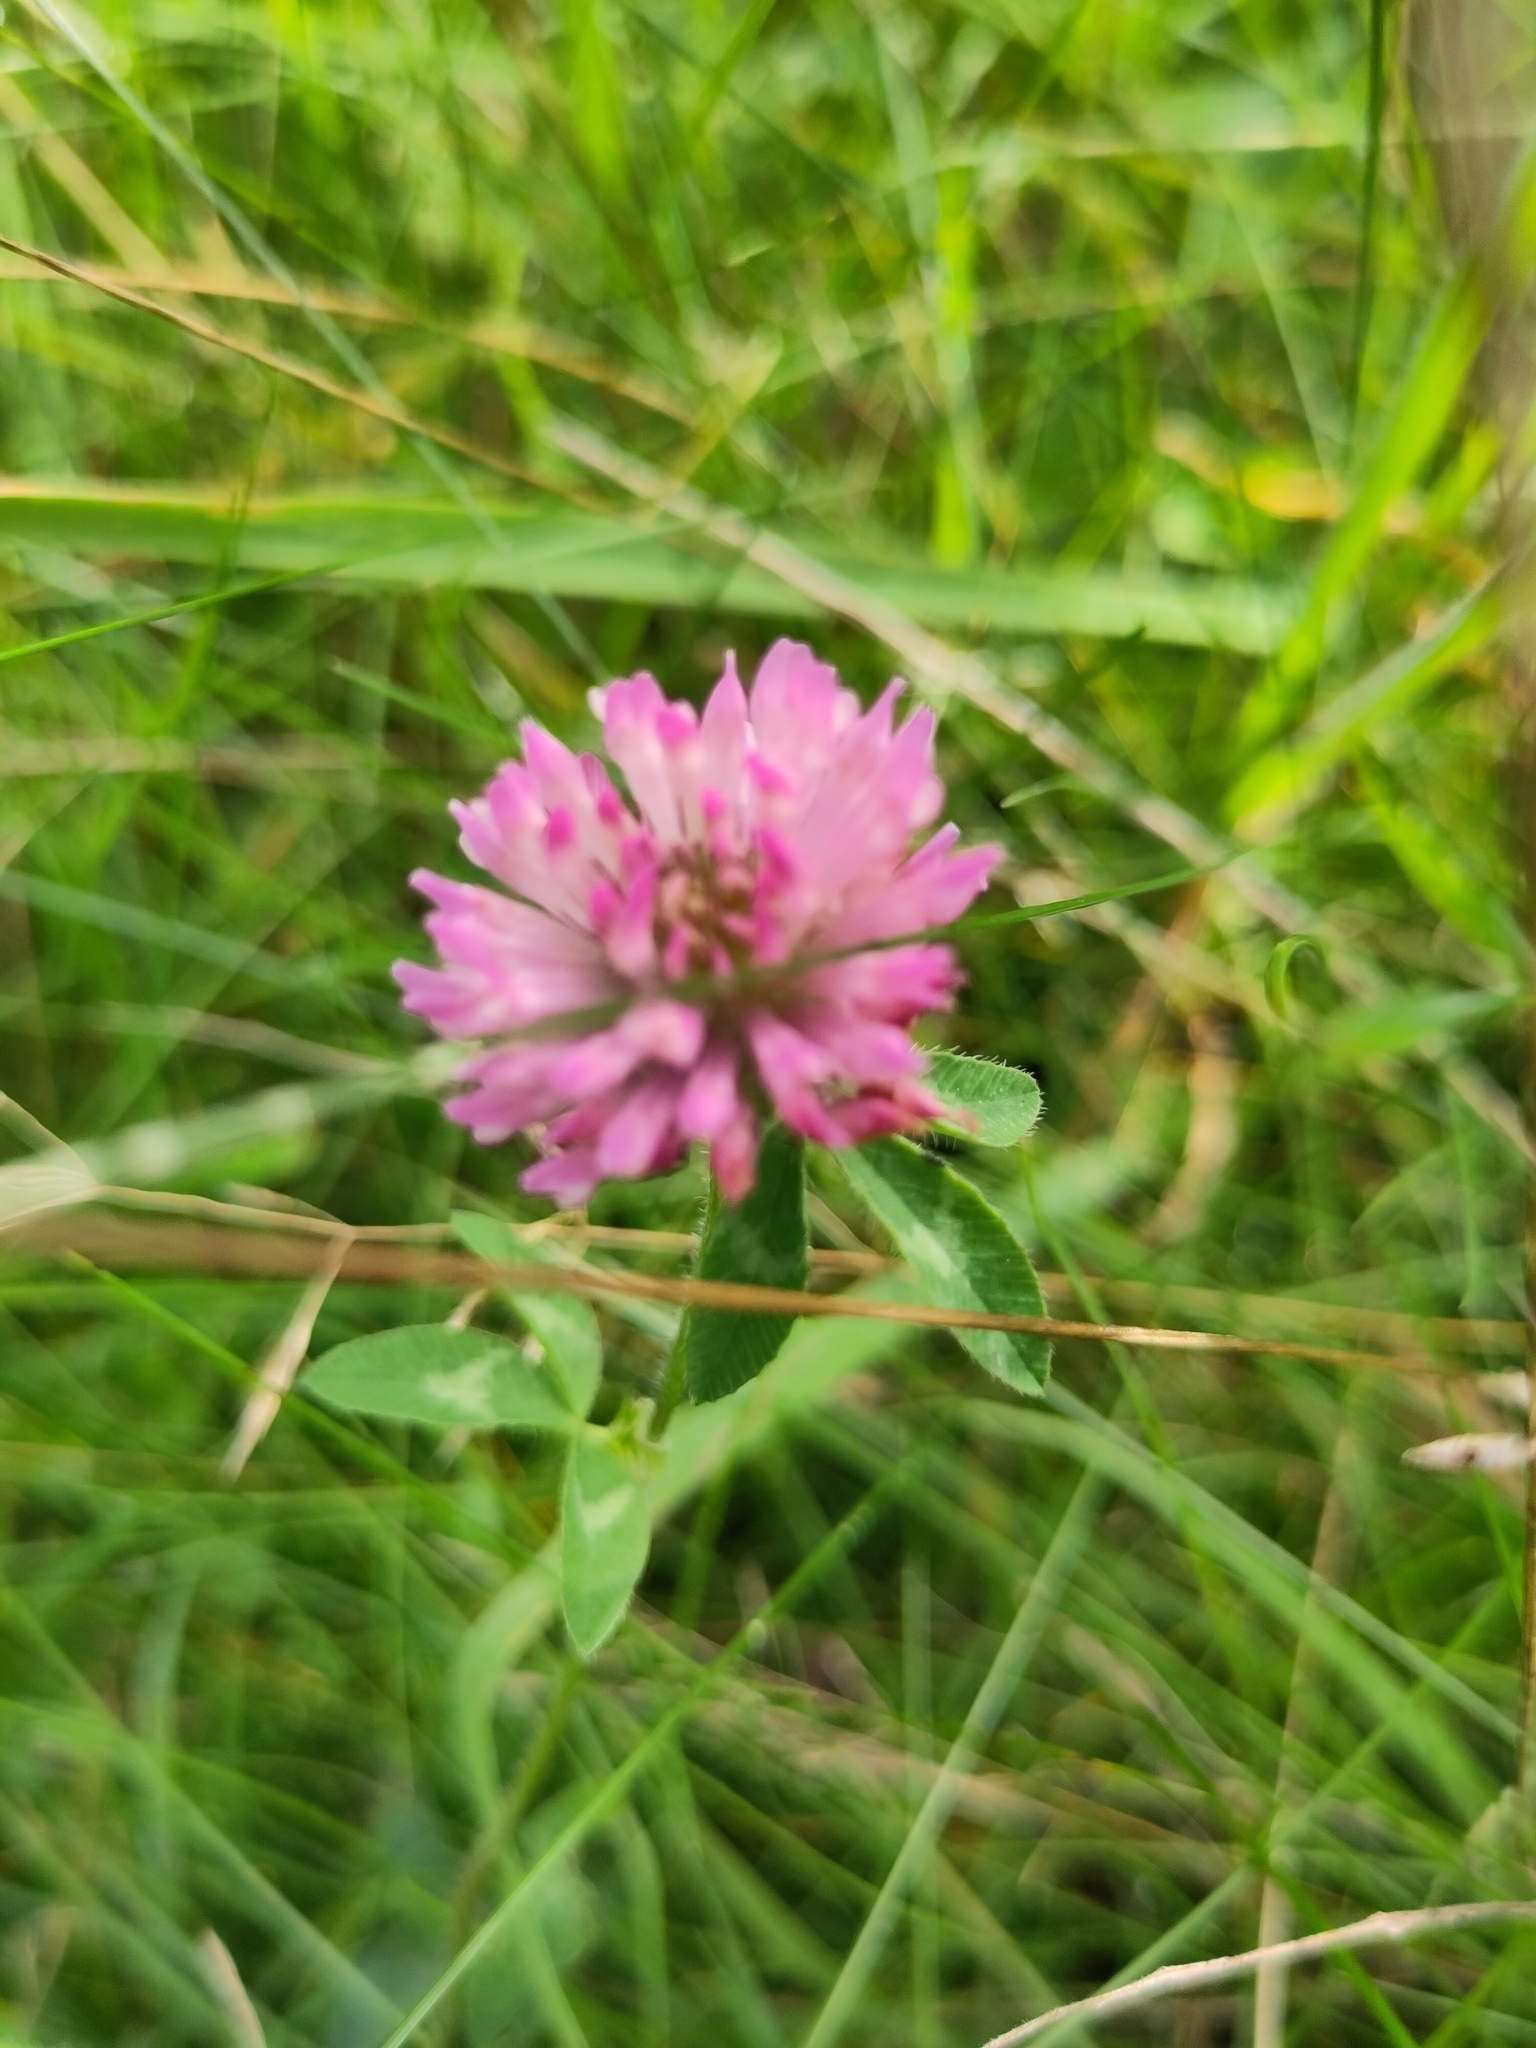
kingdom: Plantae
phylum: Tracheophyta
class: Magnoliopsida
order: Fabales
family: Fabaceae
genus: Trifolium
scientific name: Trifolium pratense
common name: Red clover
